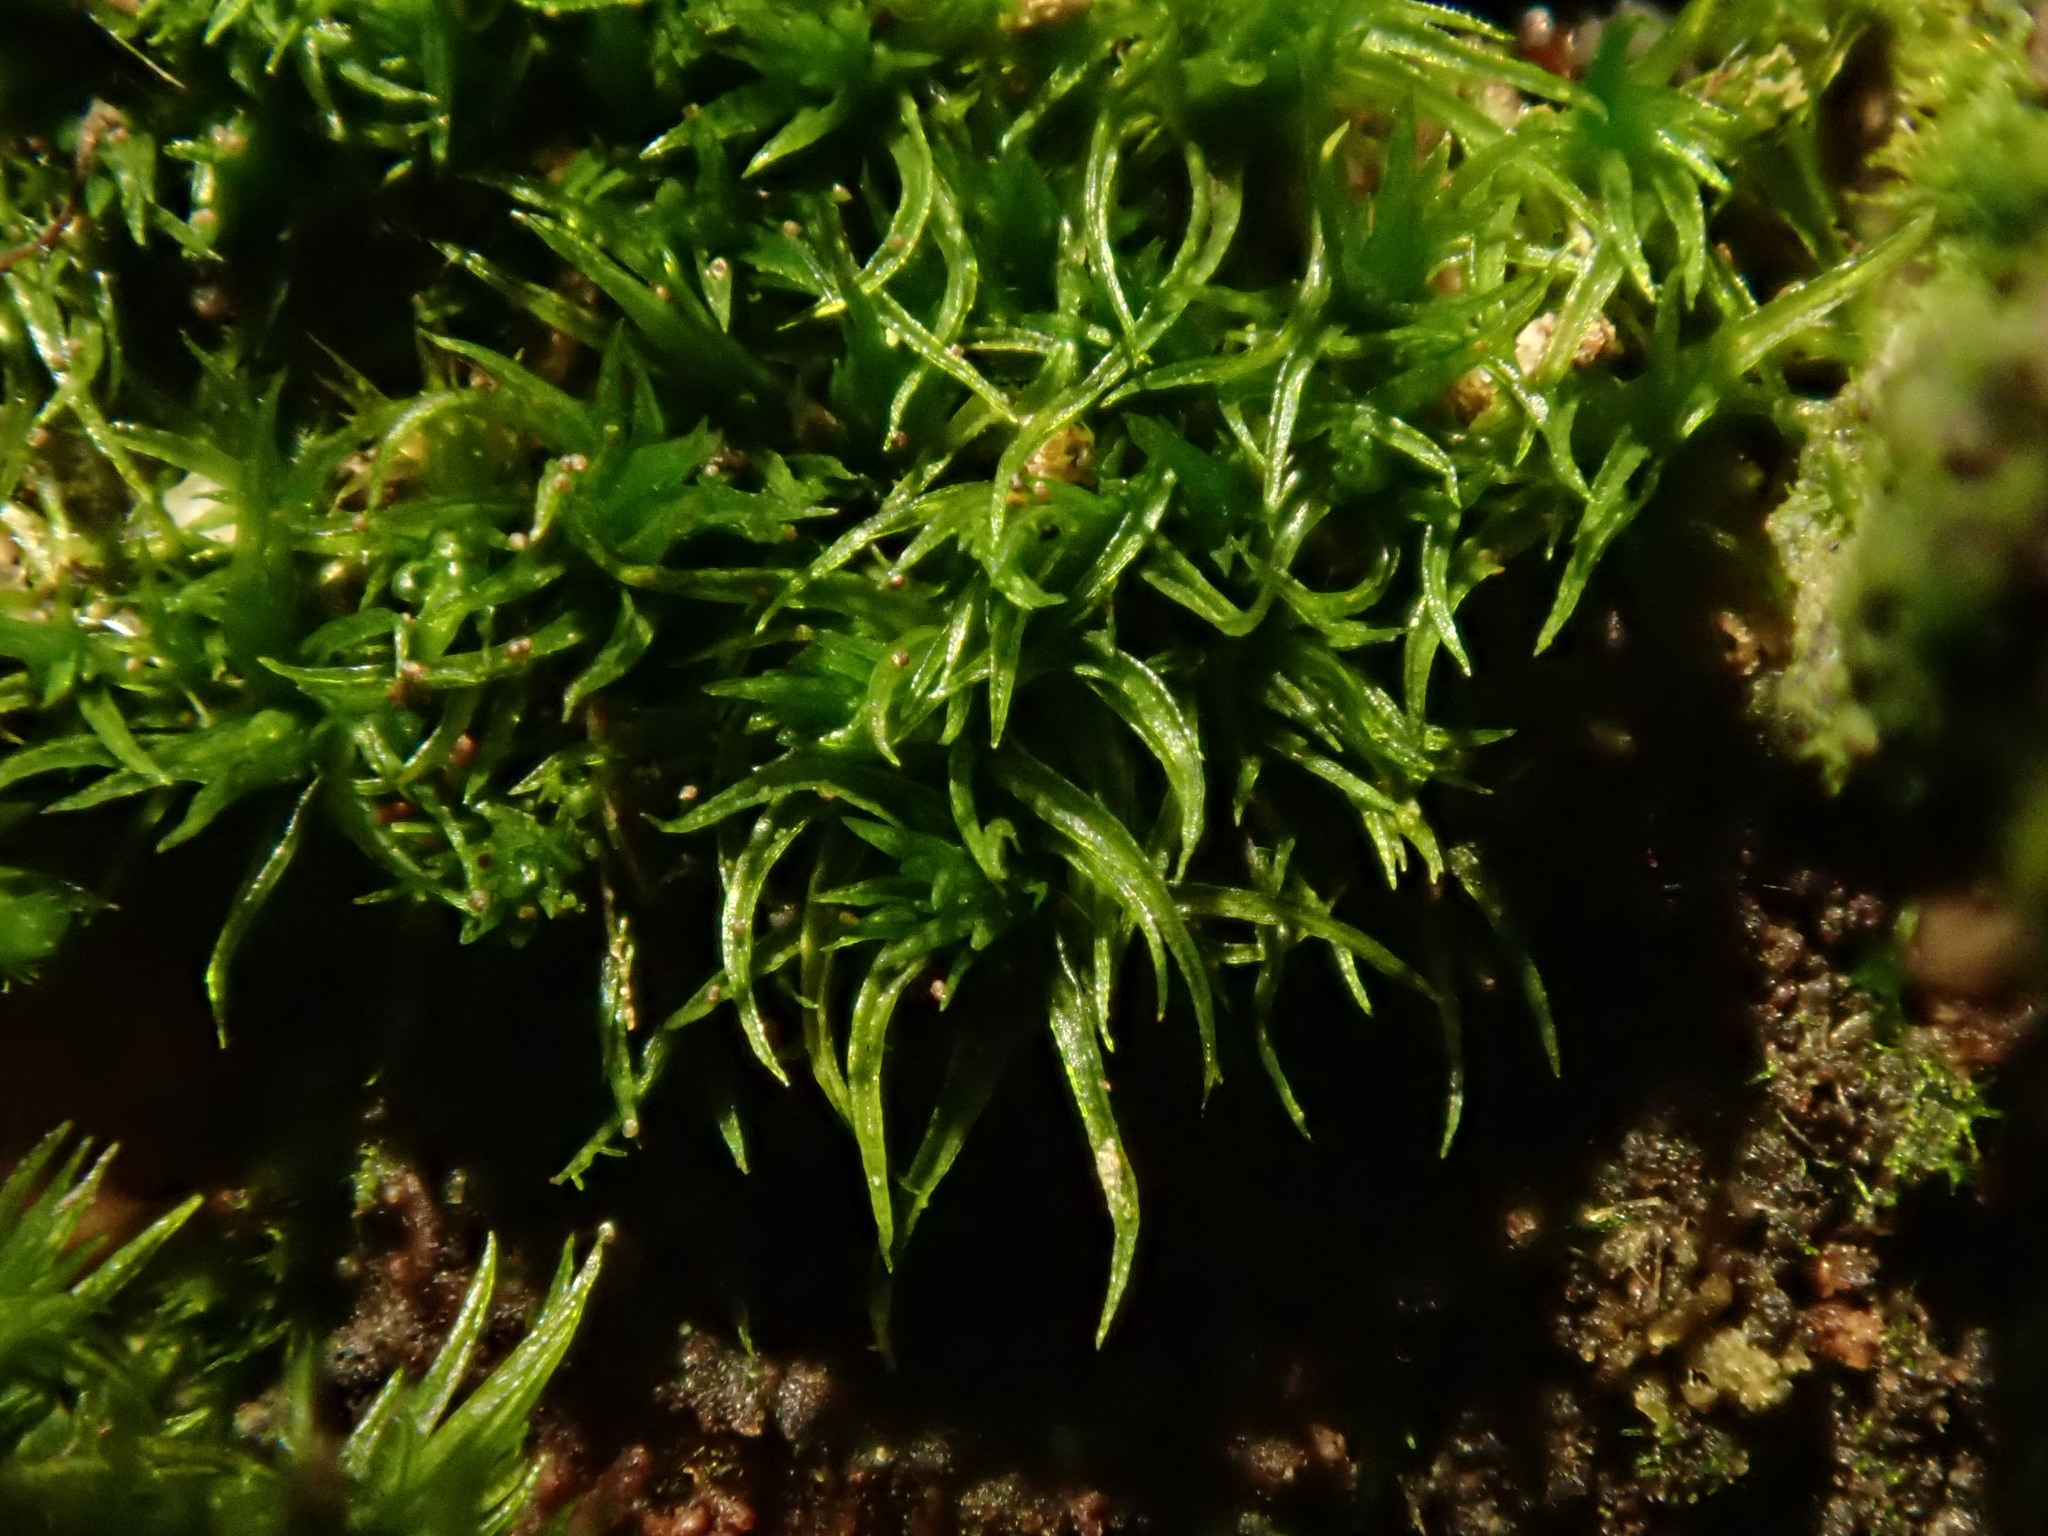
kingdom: Plantae
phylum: Bryophyta
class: Bryopsida
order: Orthodontiales
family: Orthodontiaceae
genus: Orthodontium
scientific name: Orthodontium lineare
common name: Cape thread-moss
